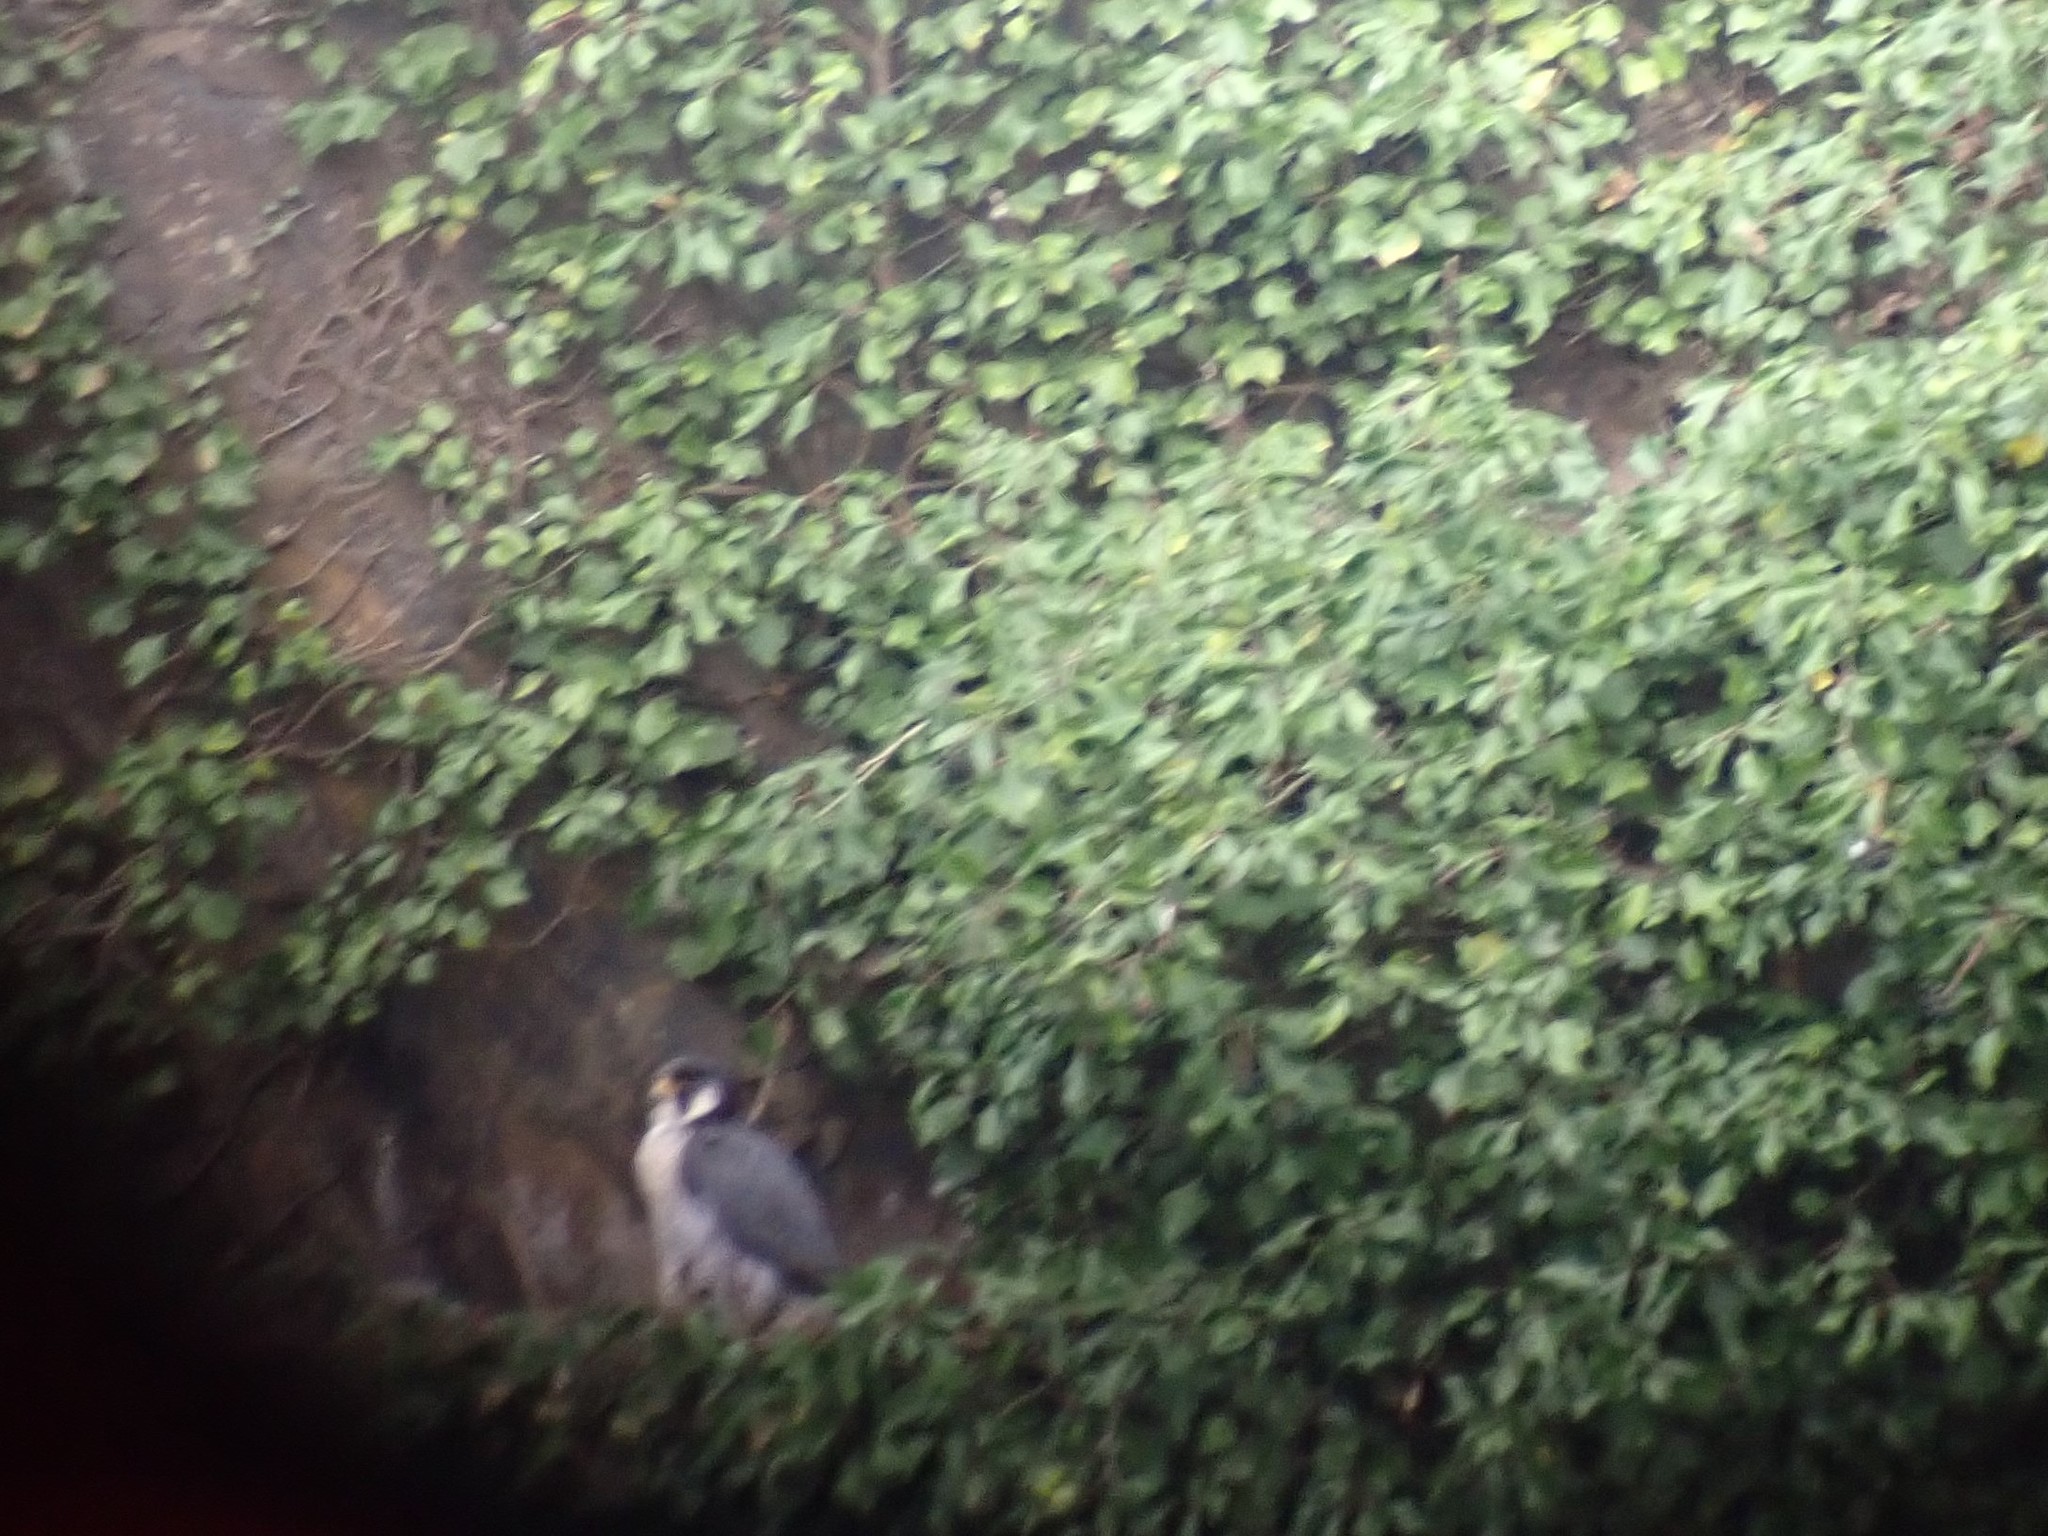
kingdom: Animalia
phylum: Chordata
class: Aves
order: Falconiformes
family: Falconidae
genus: Falco
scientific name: Falco peregrinus
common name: Peregrine falcon
